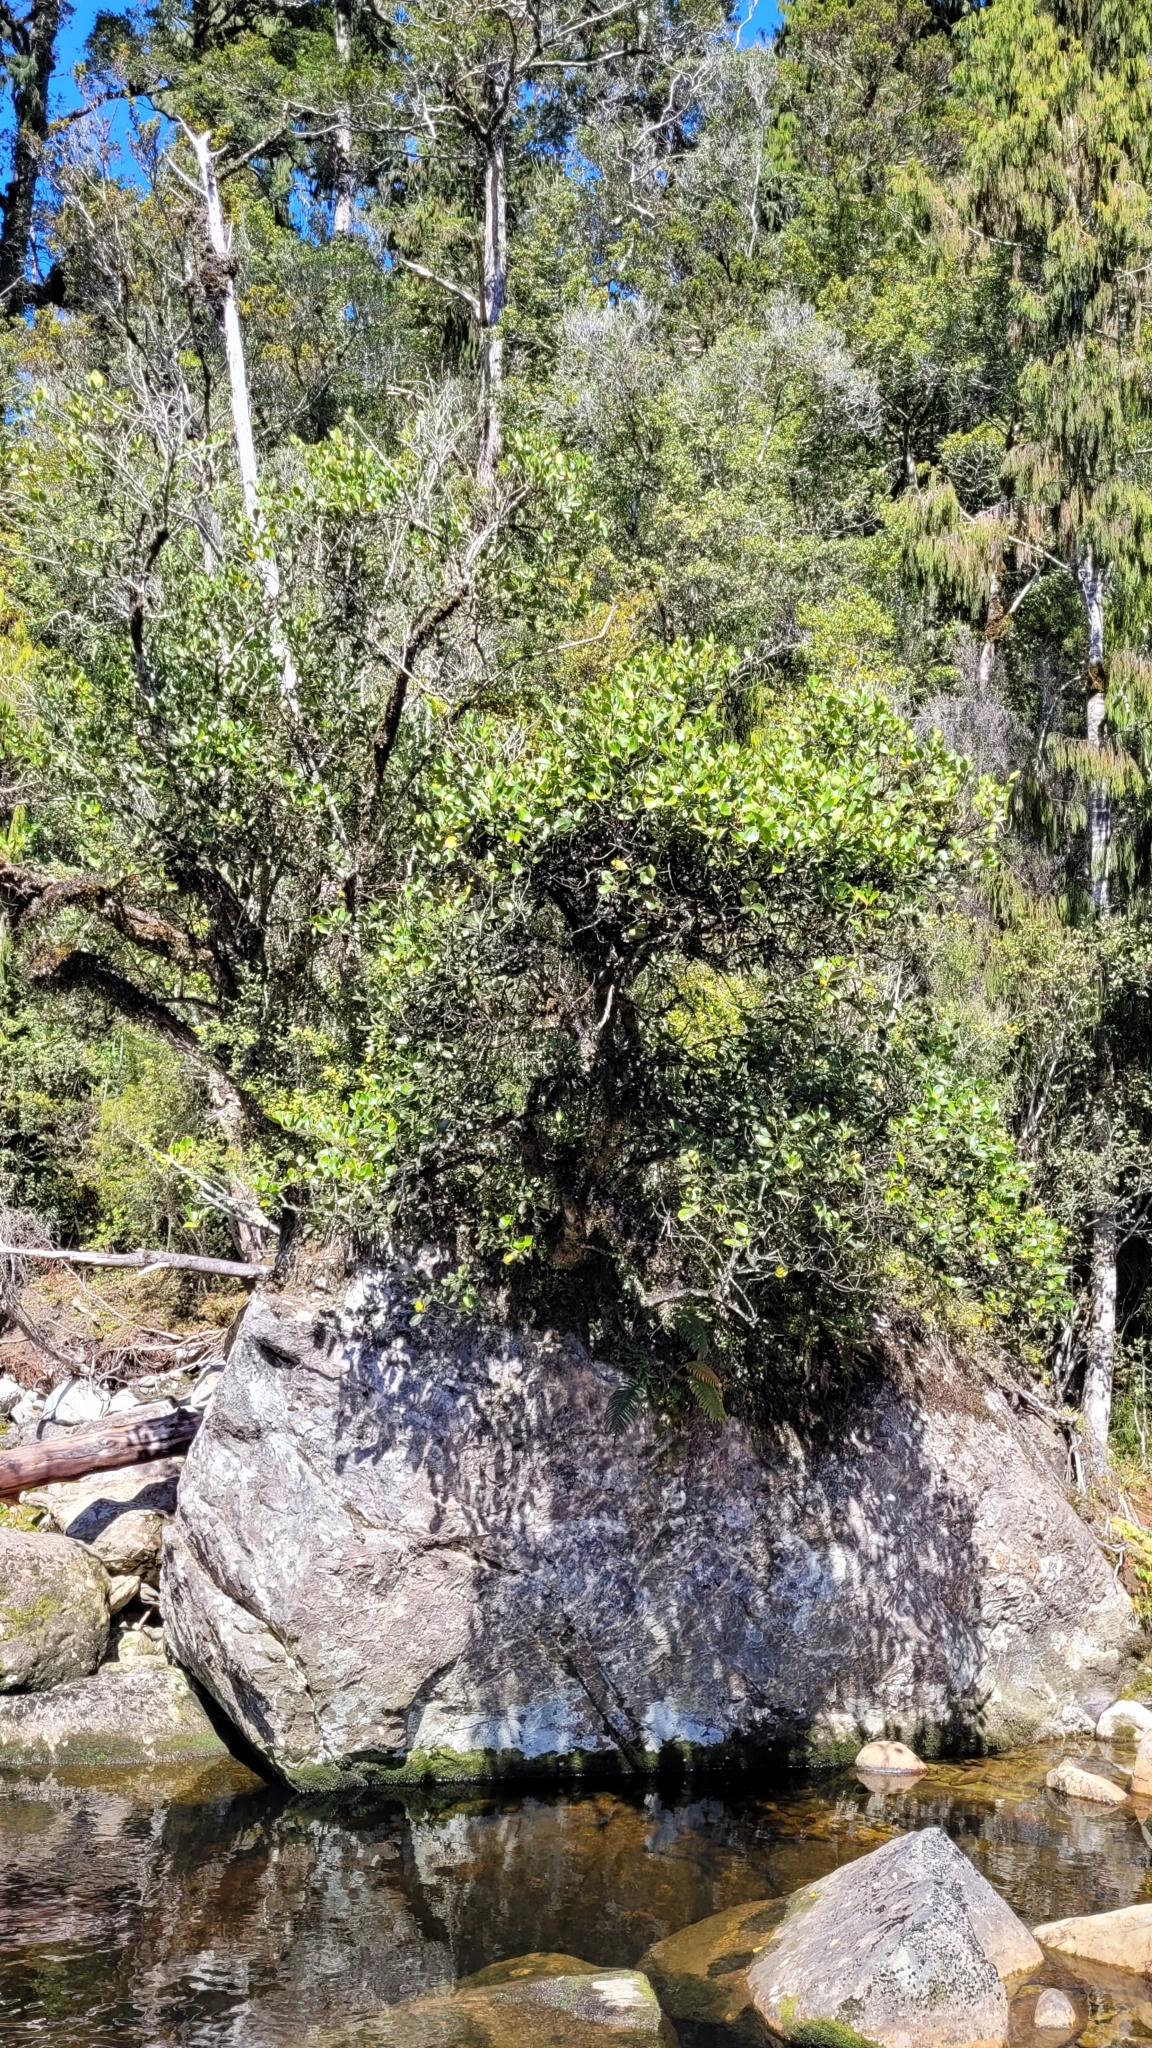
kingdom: Plantae
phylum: Tracheophyta
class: Magnoliopsida
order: Apiales
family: Griseliniaceae
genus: Griselinia
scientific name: Griselinia littoralis
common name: New zealand broadleaf
